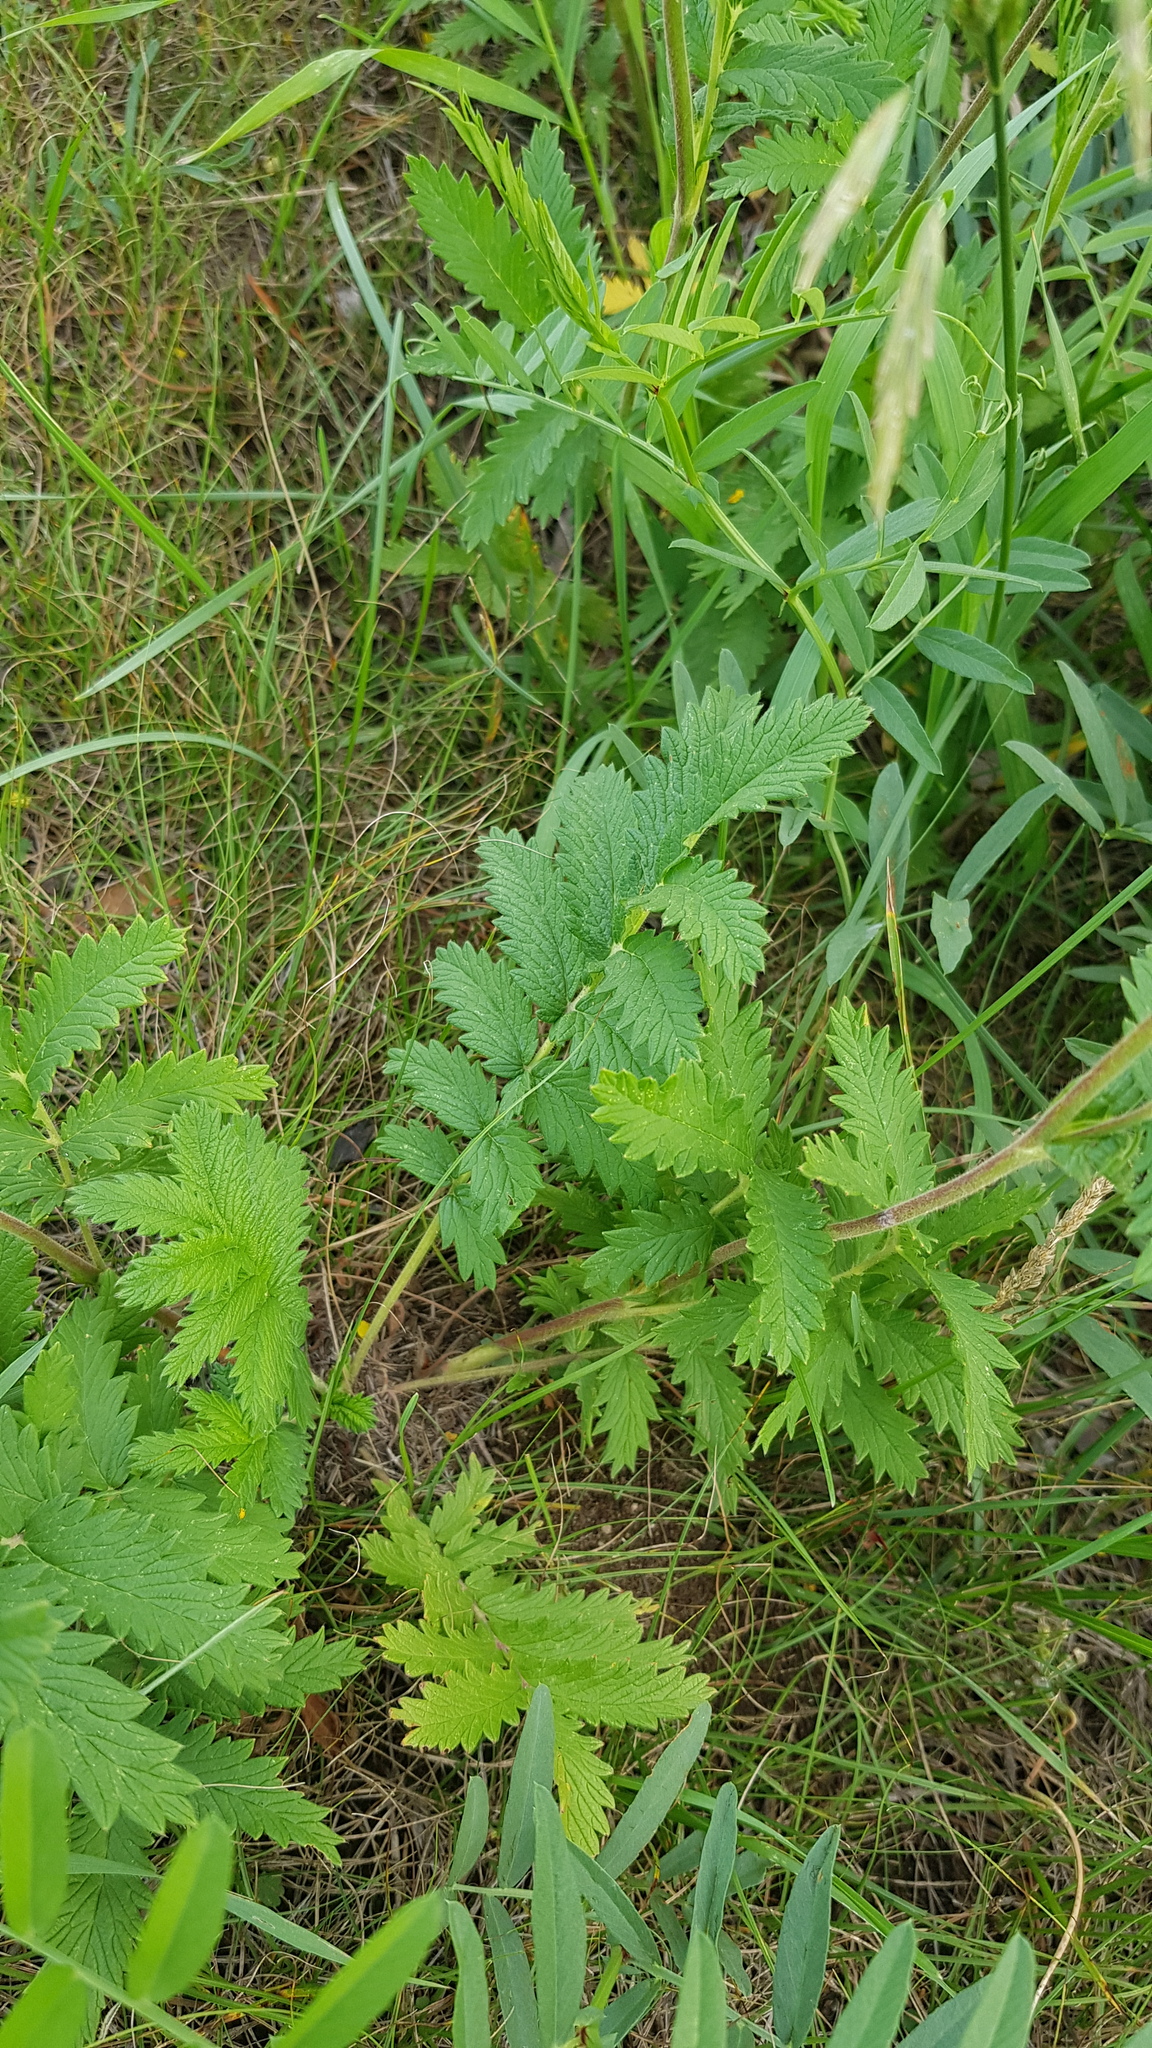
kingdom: Plantae
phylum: Tracheophyta
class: Magnoliopsida
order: Rosales
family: Rosaceae
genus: Potentilla
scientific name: Potentilla tanacetifolia
